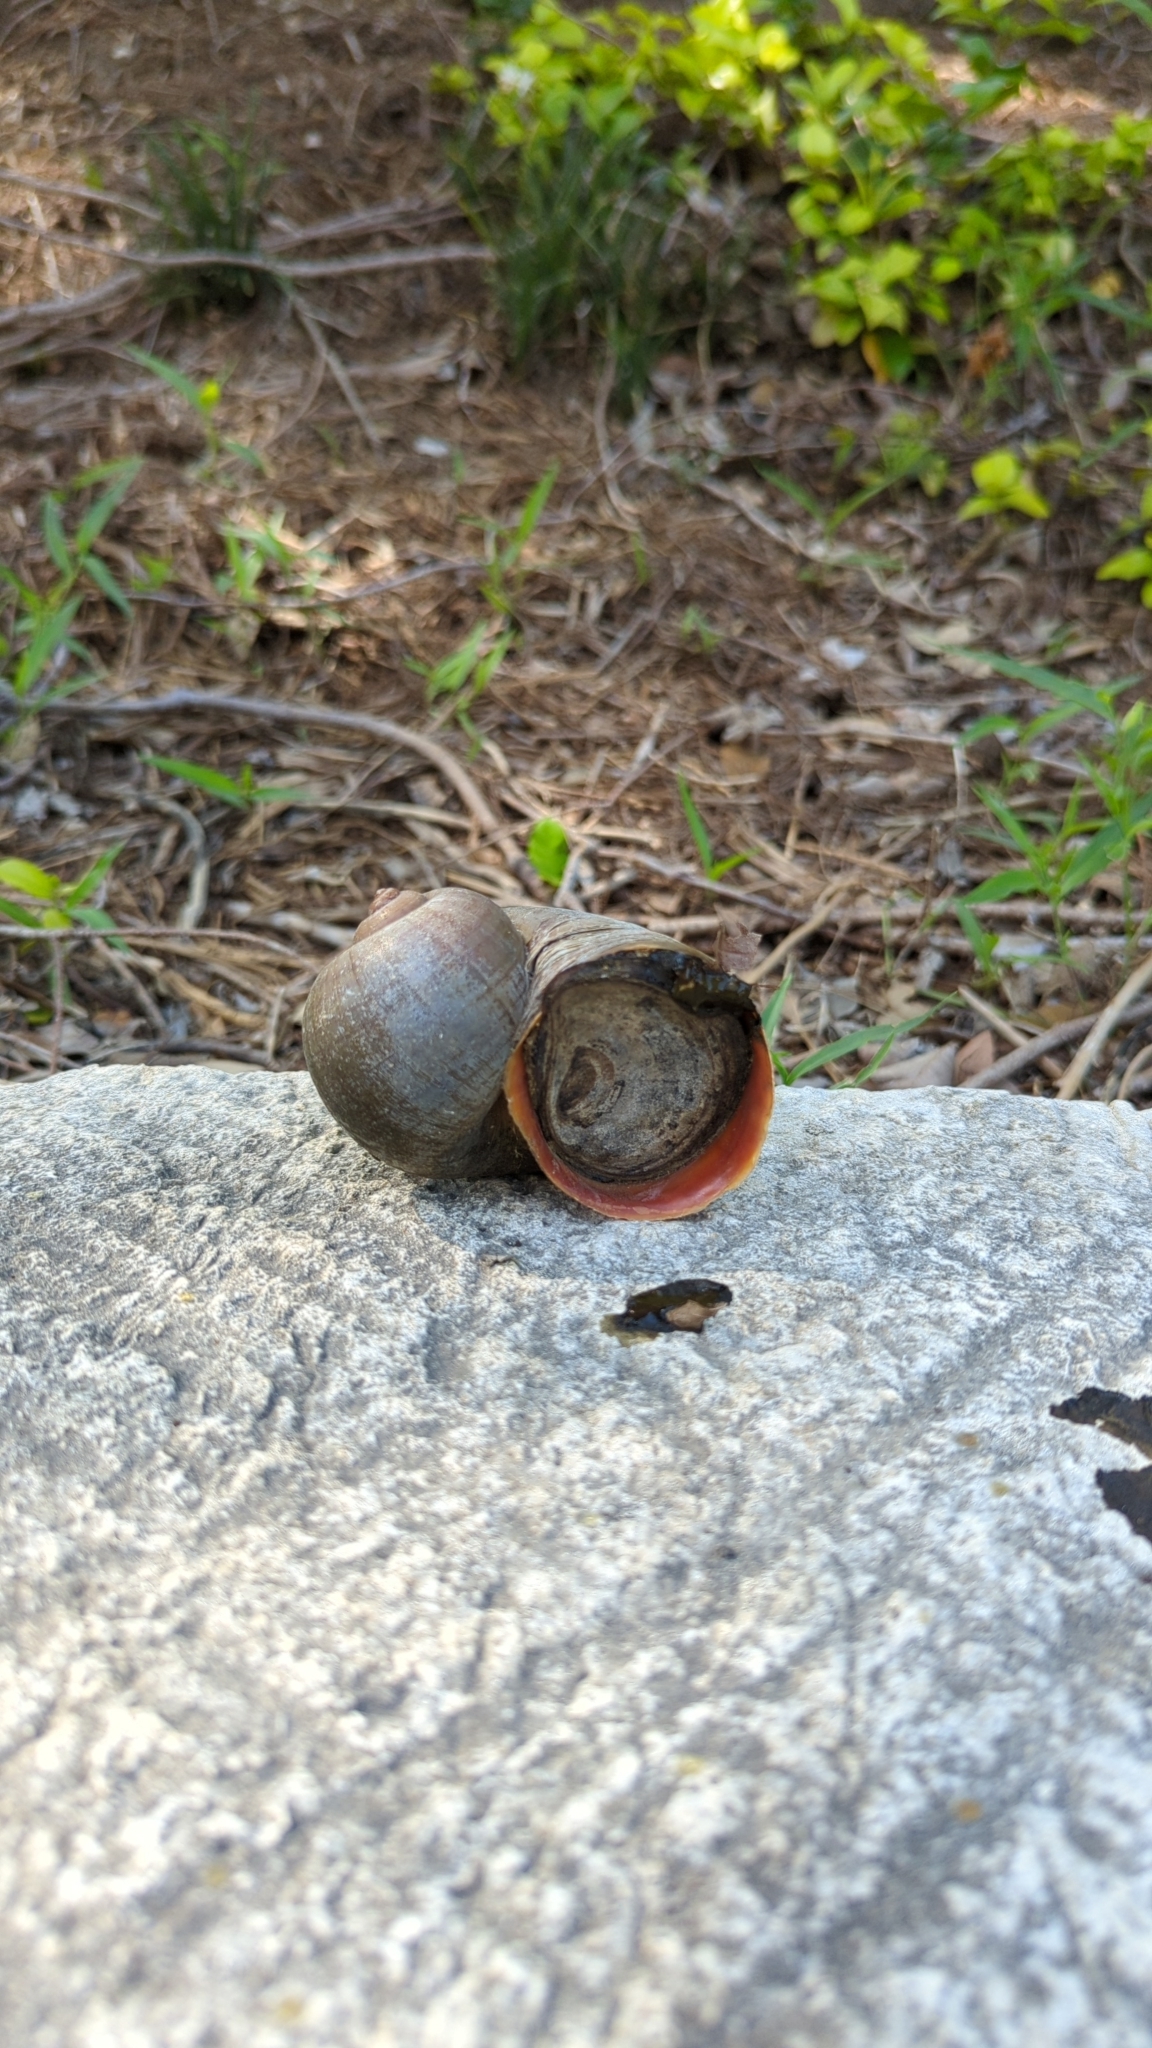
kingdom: Animalia
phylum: Mollusca
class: Gastropoda
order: Architaenioglossa
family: Ampullariidae
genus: Pomacea
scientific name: Pomacea maculata
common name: Giant applesnail
